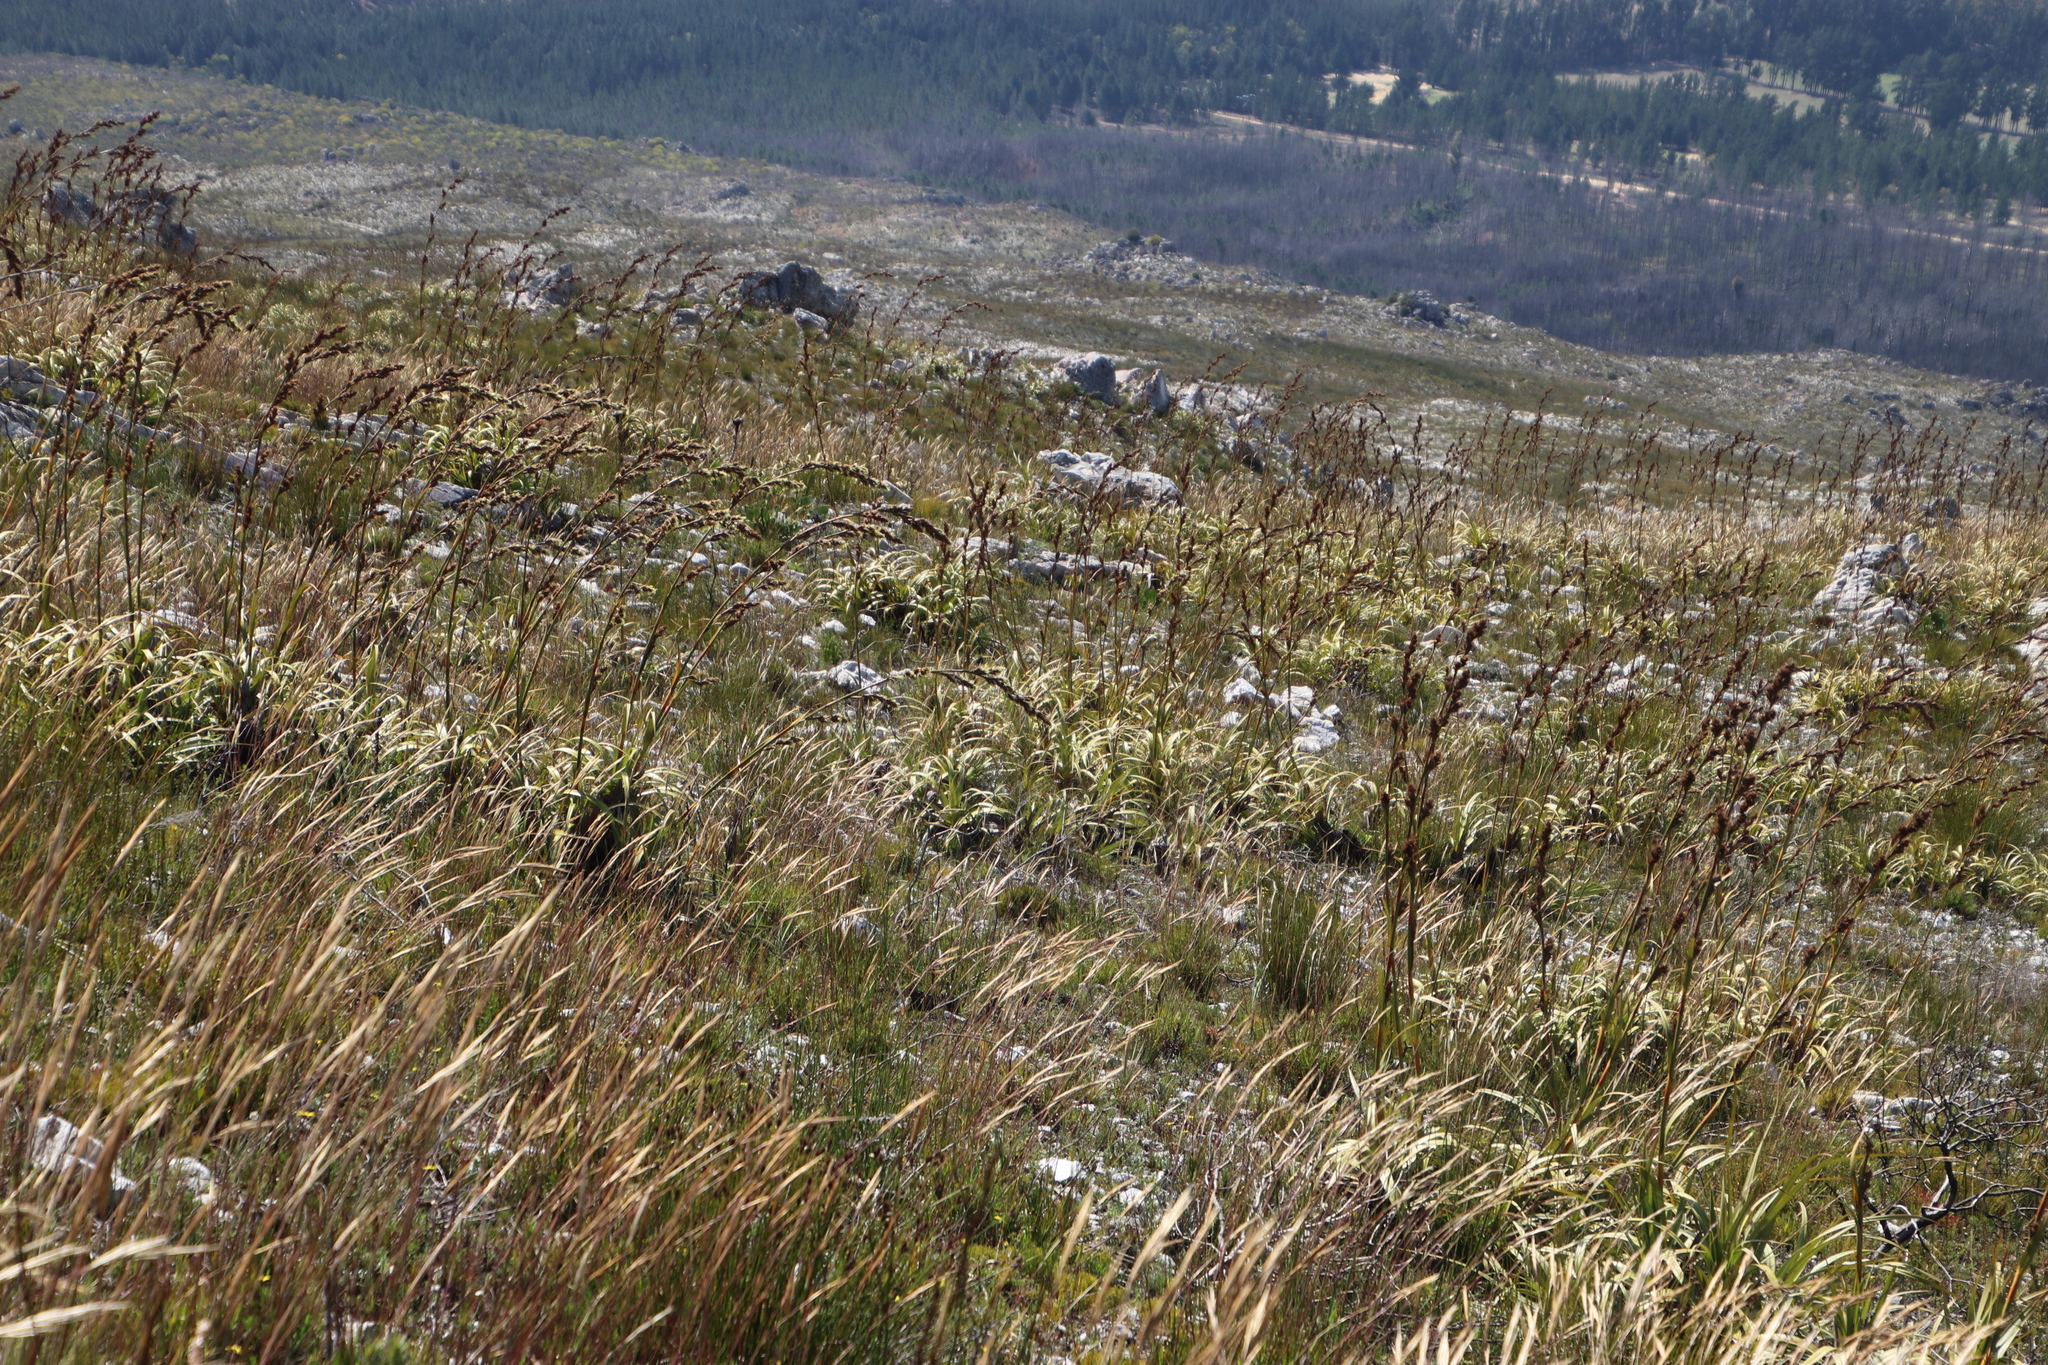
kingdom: Plantae
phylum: Tracheophyta
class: Liliopsida
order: Poales
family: Cyperaceae
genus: Tetraria
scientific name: Tetraria thermalis
